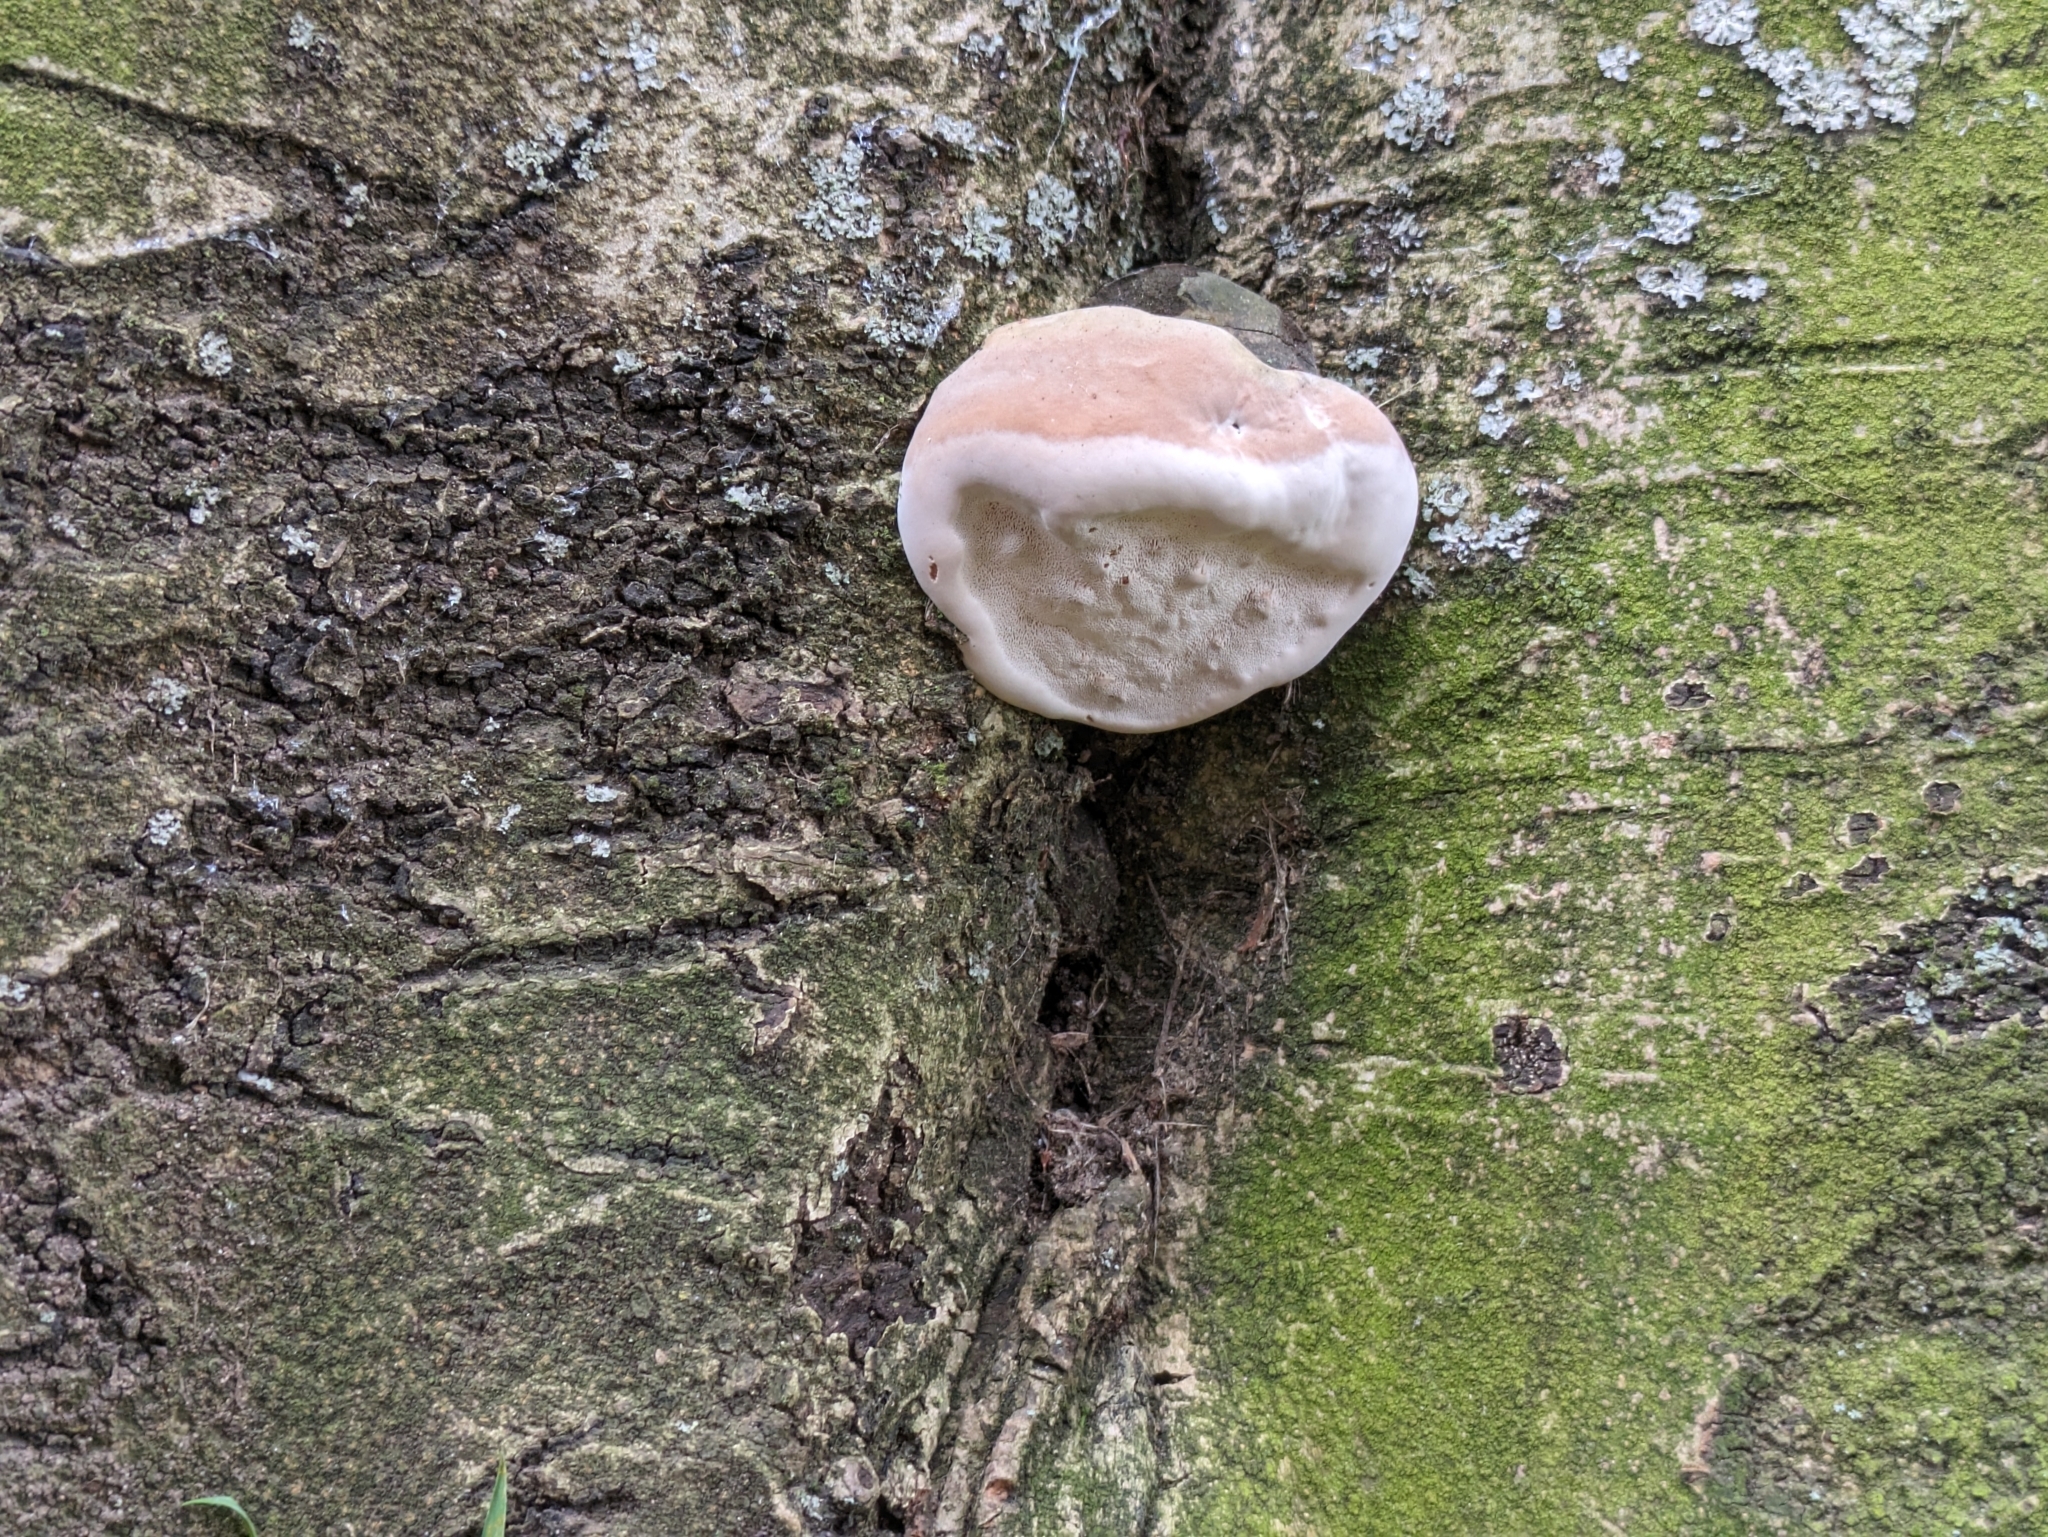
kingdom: Fungi
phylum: Basidiomycota
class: Agaricomycetes
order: Hymenochaetales
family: Hymenochaetaceae
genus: Phellinus
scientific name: Phellinus pomaceus
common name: Cushion bracket
